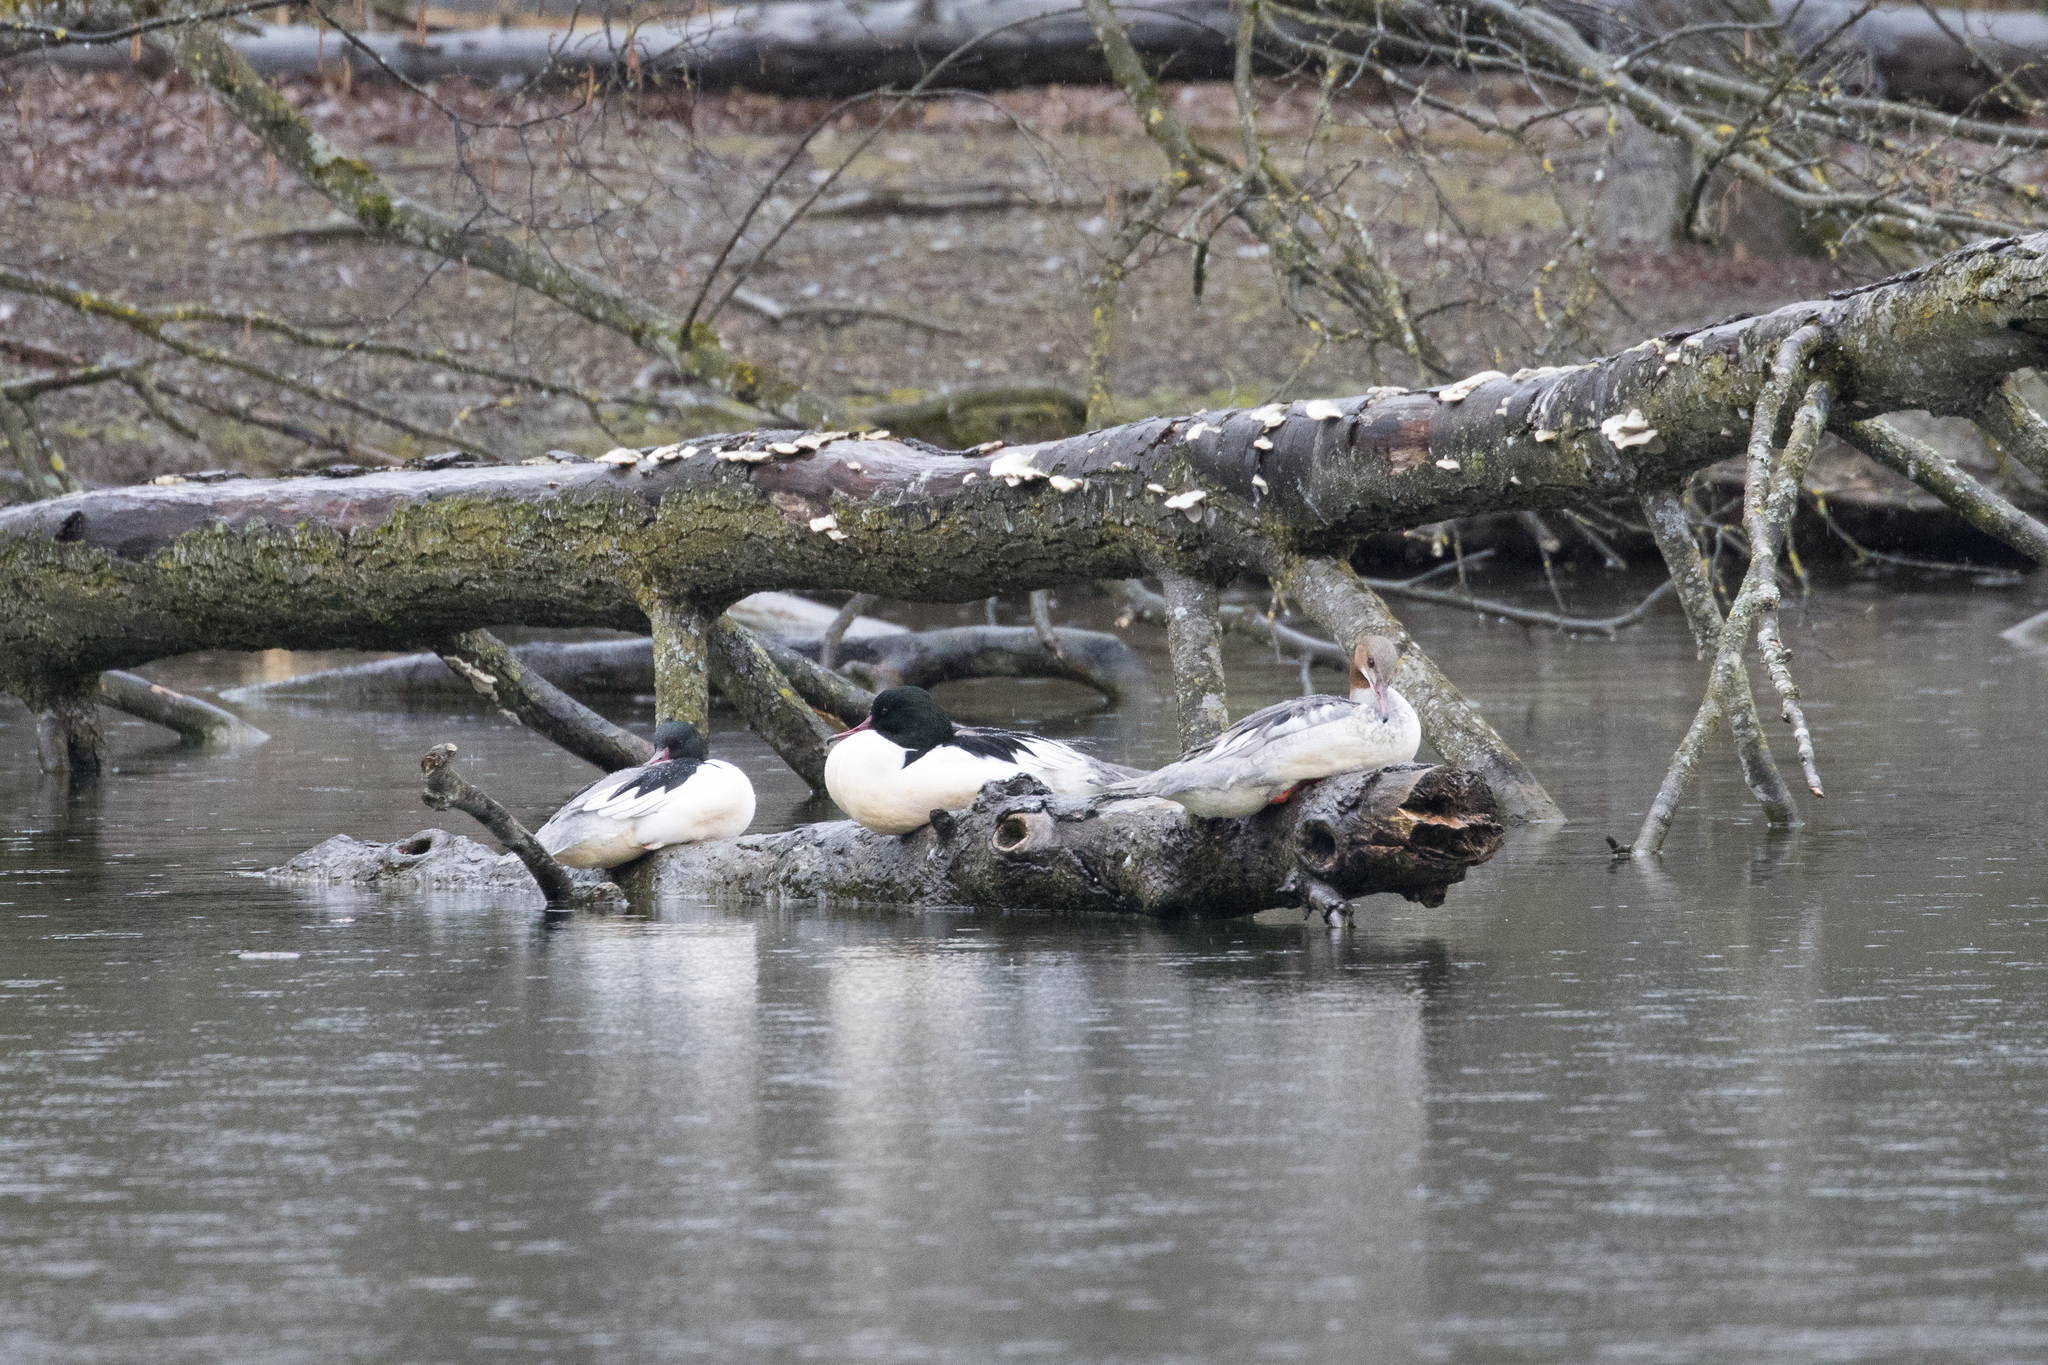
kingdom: Animalia
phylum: Chordata
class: Aves
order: Anseriformes
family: Anatidae
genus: Mergus
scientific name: Mergus merganser
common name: Common merganser
